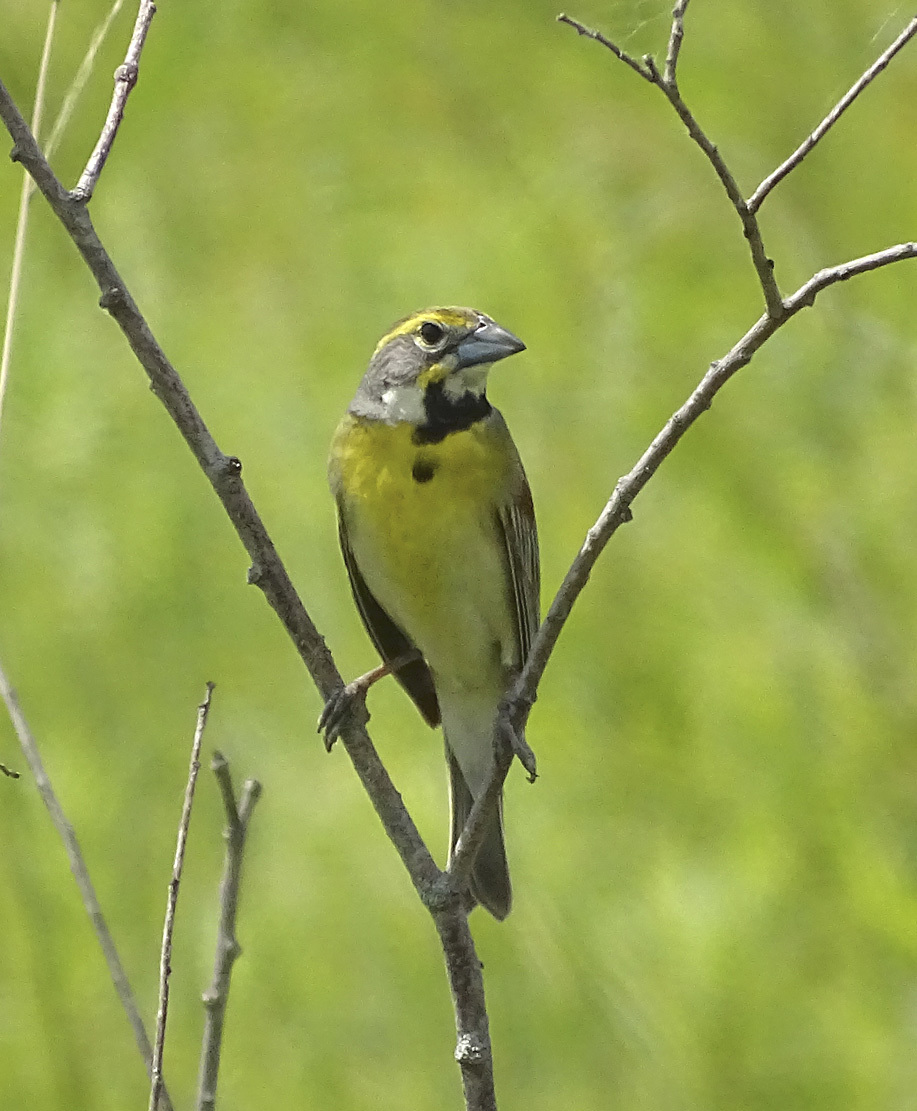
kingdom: Animalia
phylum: Chordata
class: Aves
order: Passeriformes
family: Cardinalidae
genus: Spiza
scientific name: Spiza americana
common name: Dickcissel
